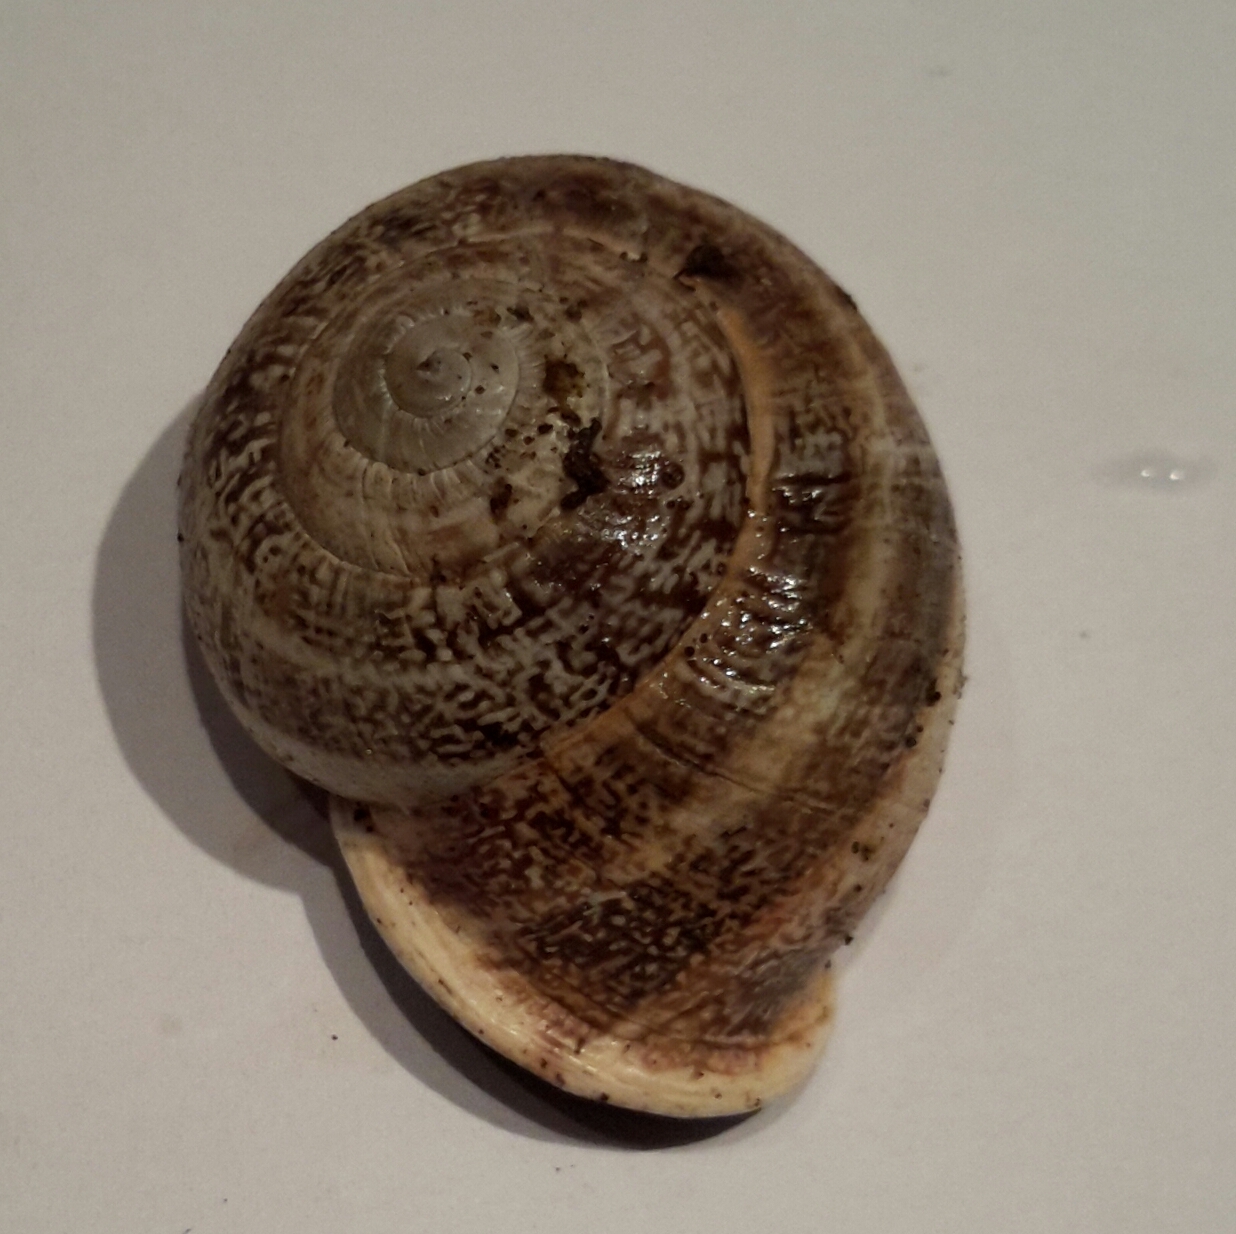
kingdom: Animalia
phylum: Mollusca
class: Gastropoda
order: Stylommatophora
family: Helicidae
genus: Otala
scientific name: Otala lactea
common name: Milk snail
